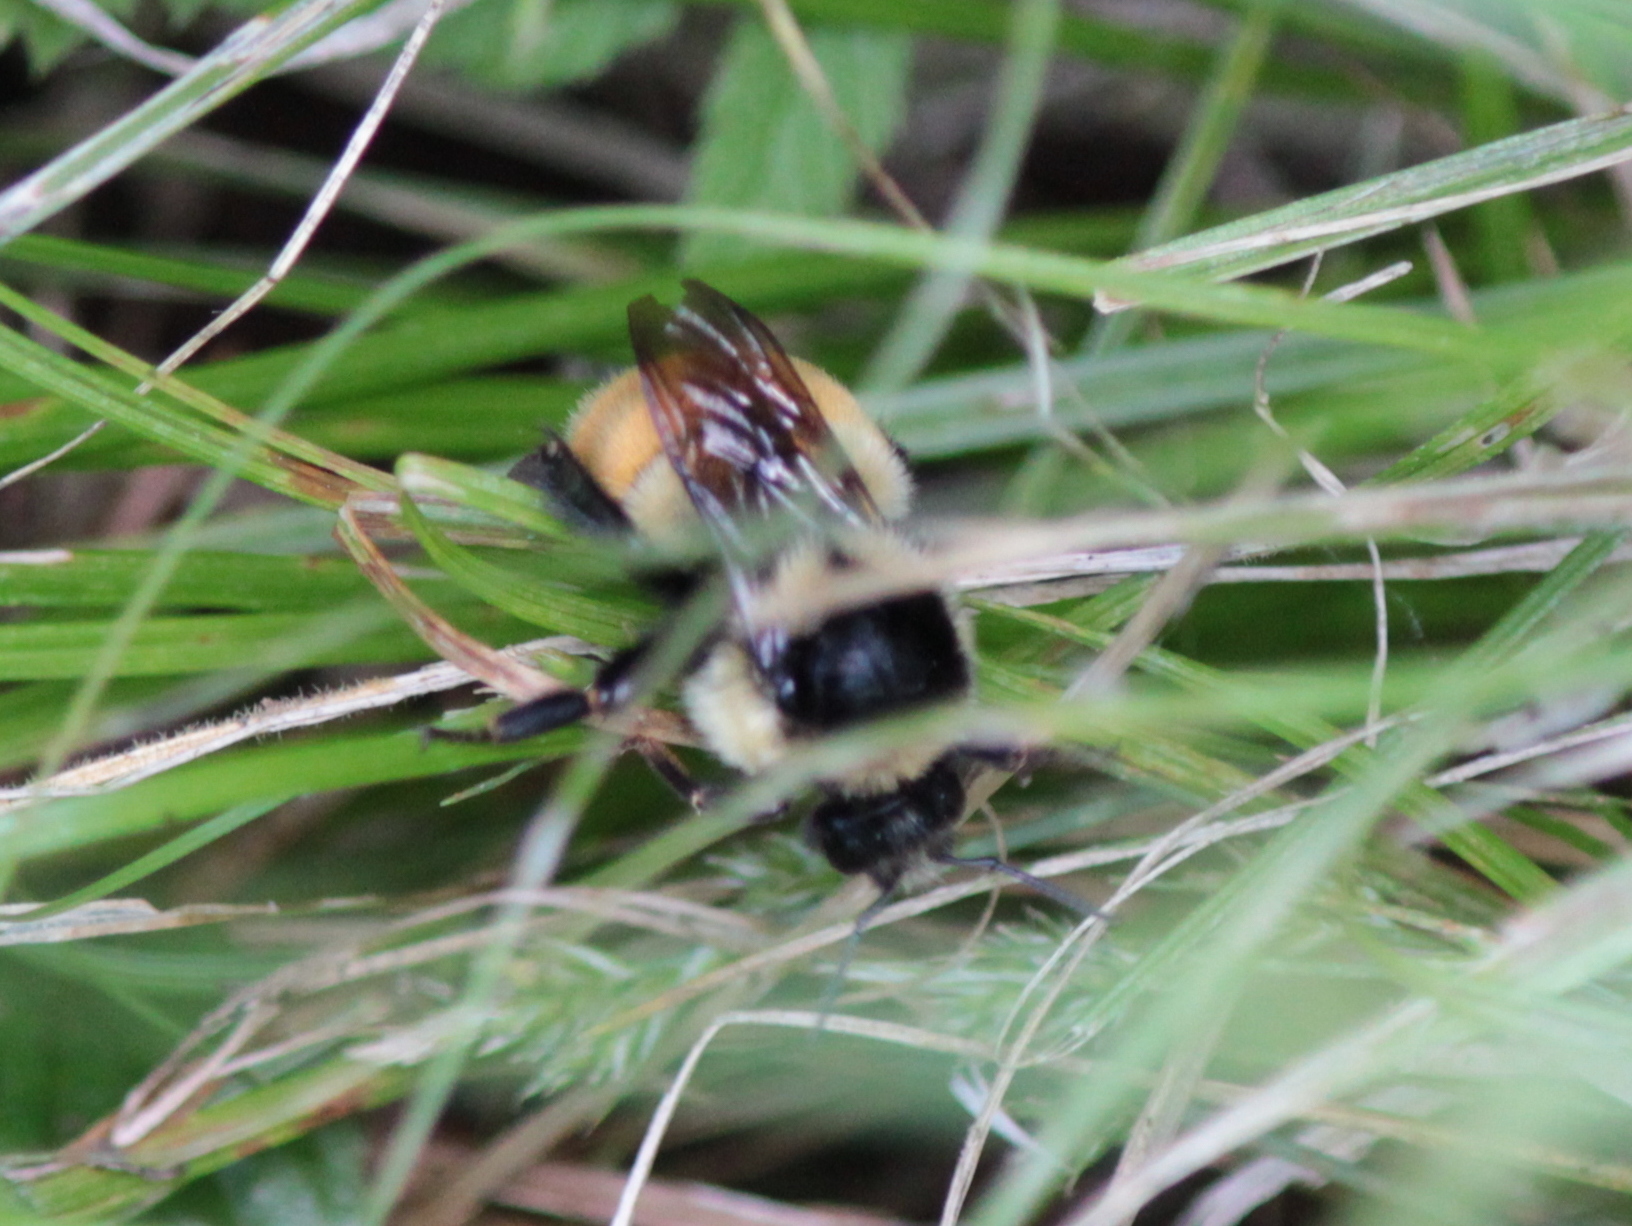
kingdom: Animalia
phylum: Arthropoda
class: Insecta
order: Hymenoptera
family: Apidae
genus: Bombus
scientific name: Bombus ternarius
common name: Tri-colored bumble bee
